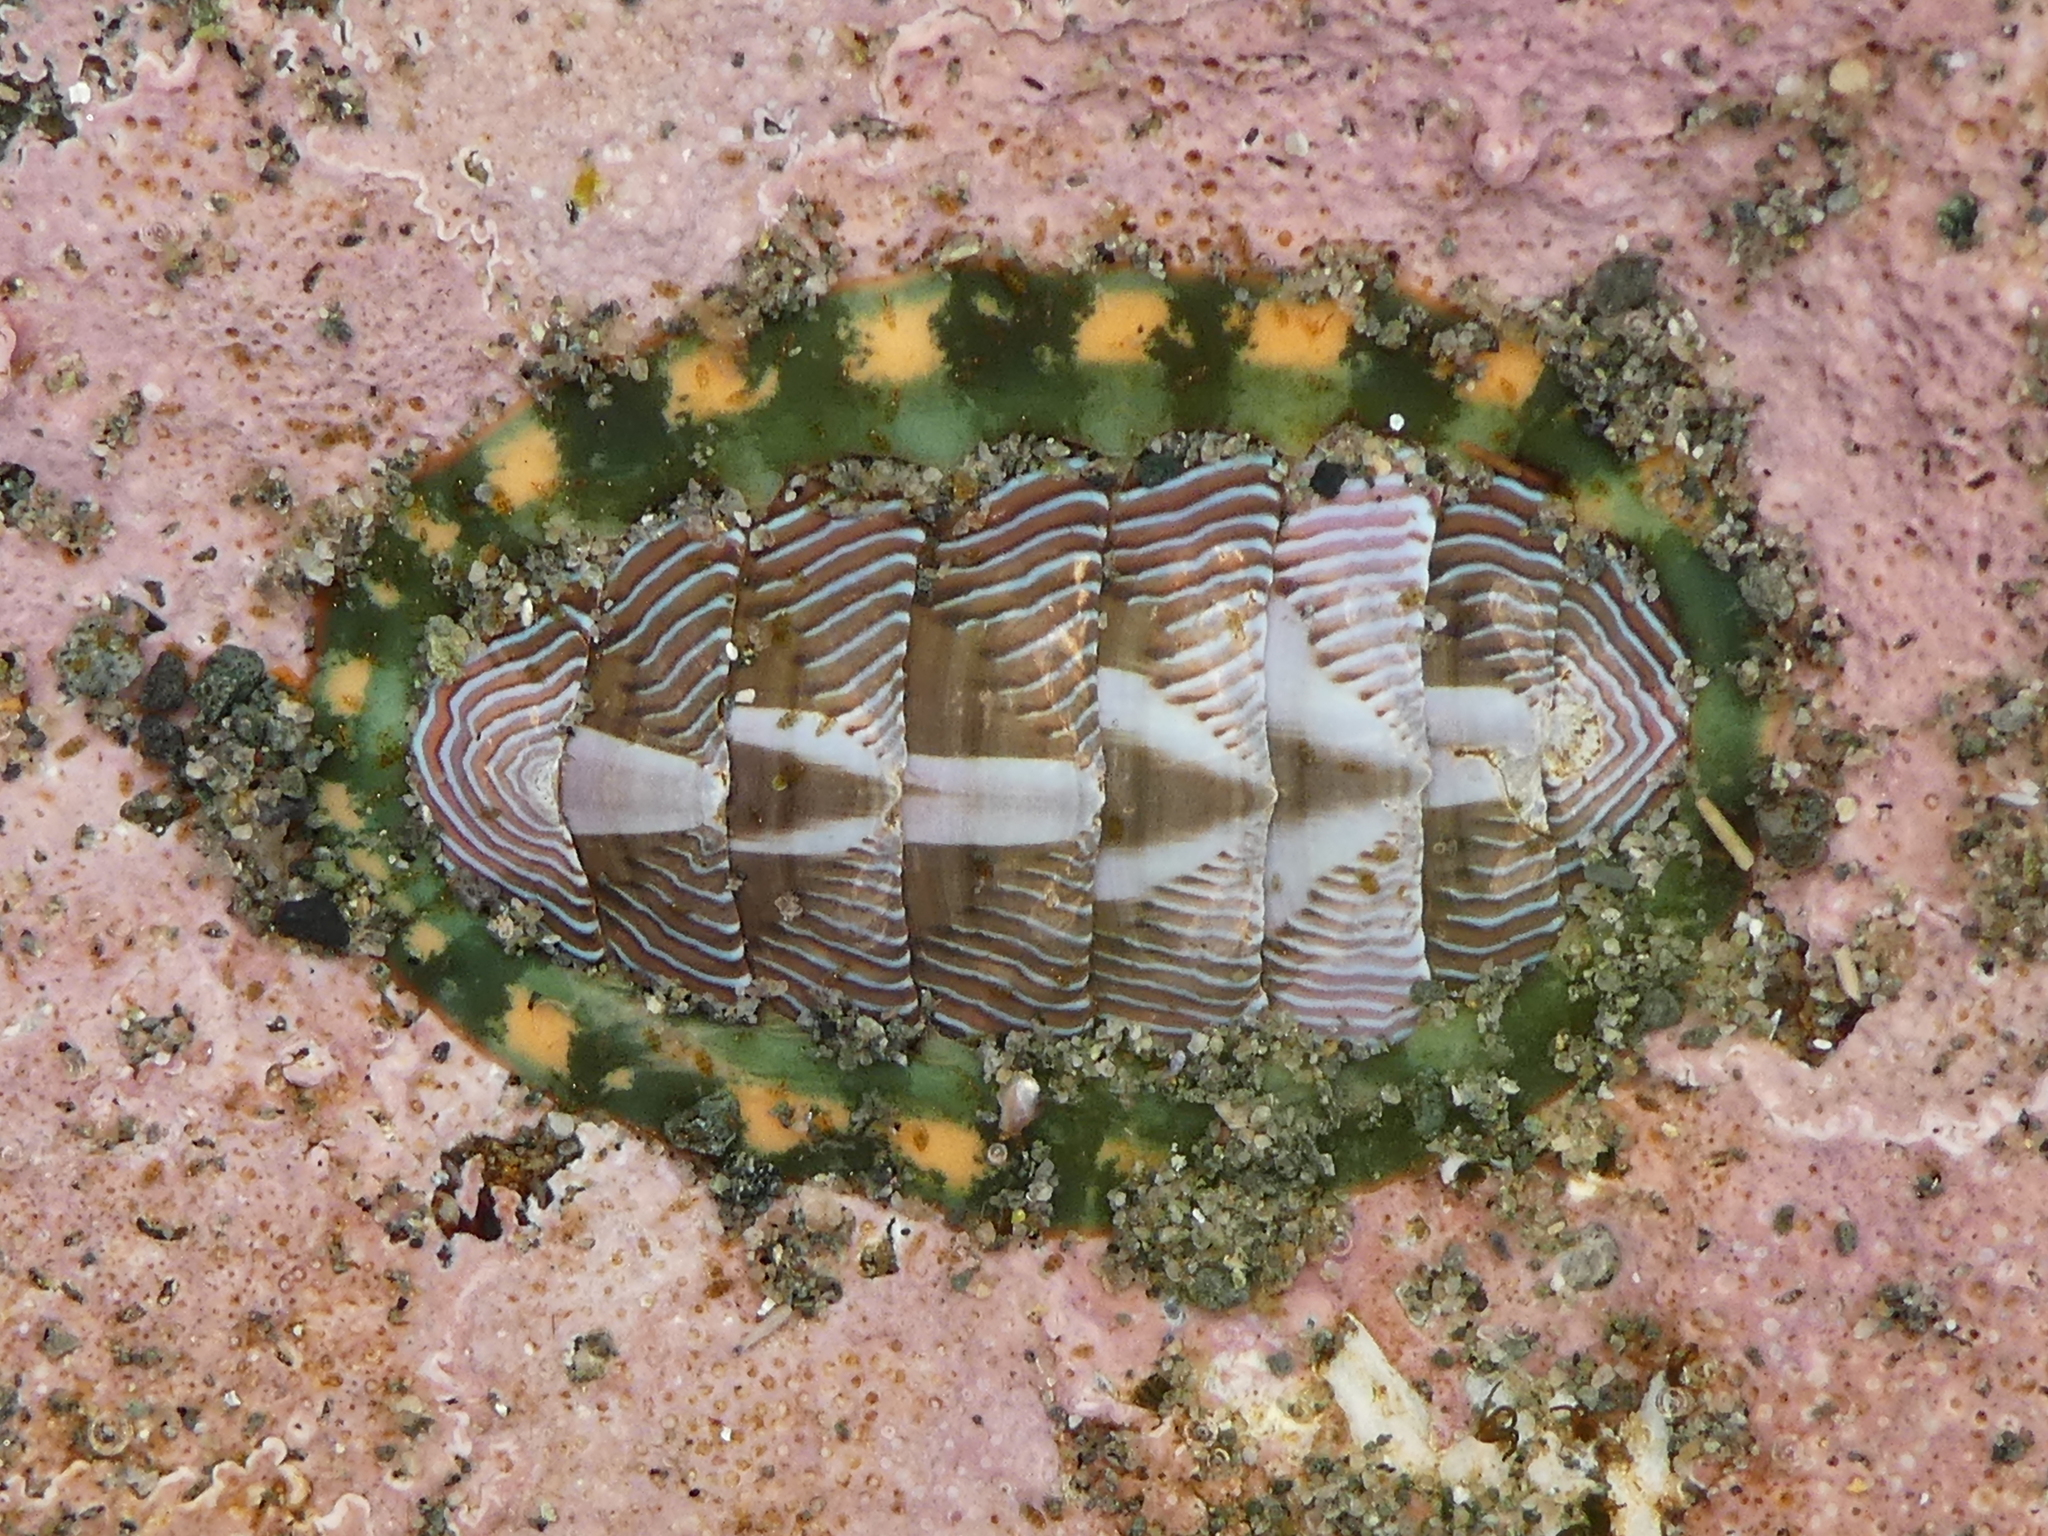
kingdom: Animalia
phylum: Mollusca
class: Polyplacophora
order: Chitonida
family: Tonicellidae
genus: Tonicella
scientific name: Tonicella lineata
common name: Lined chiton
